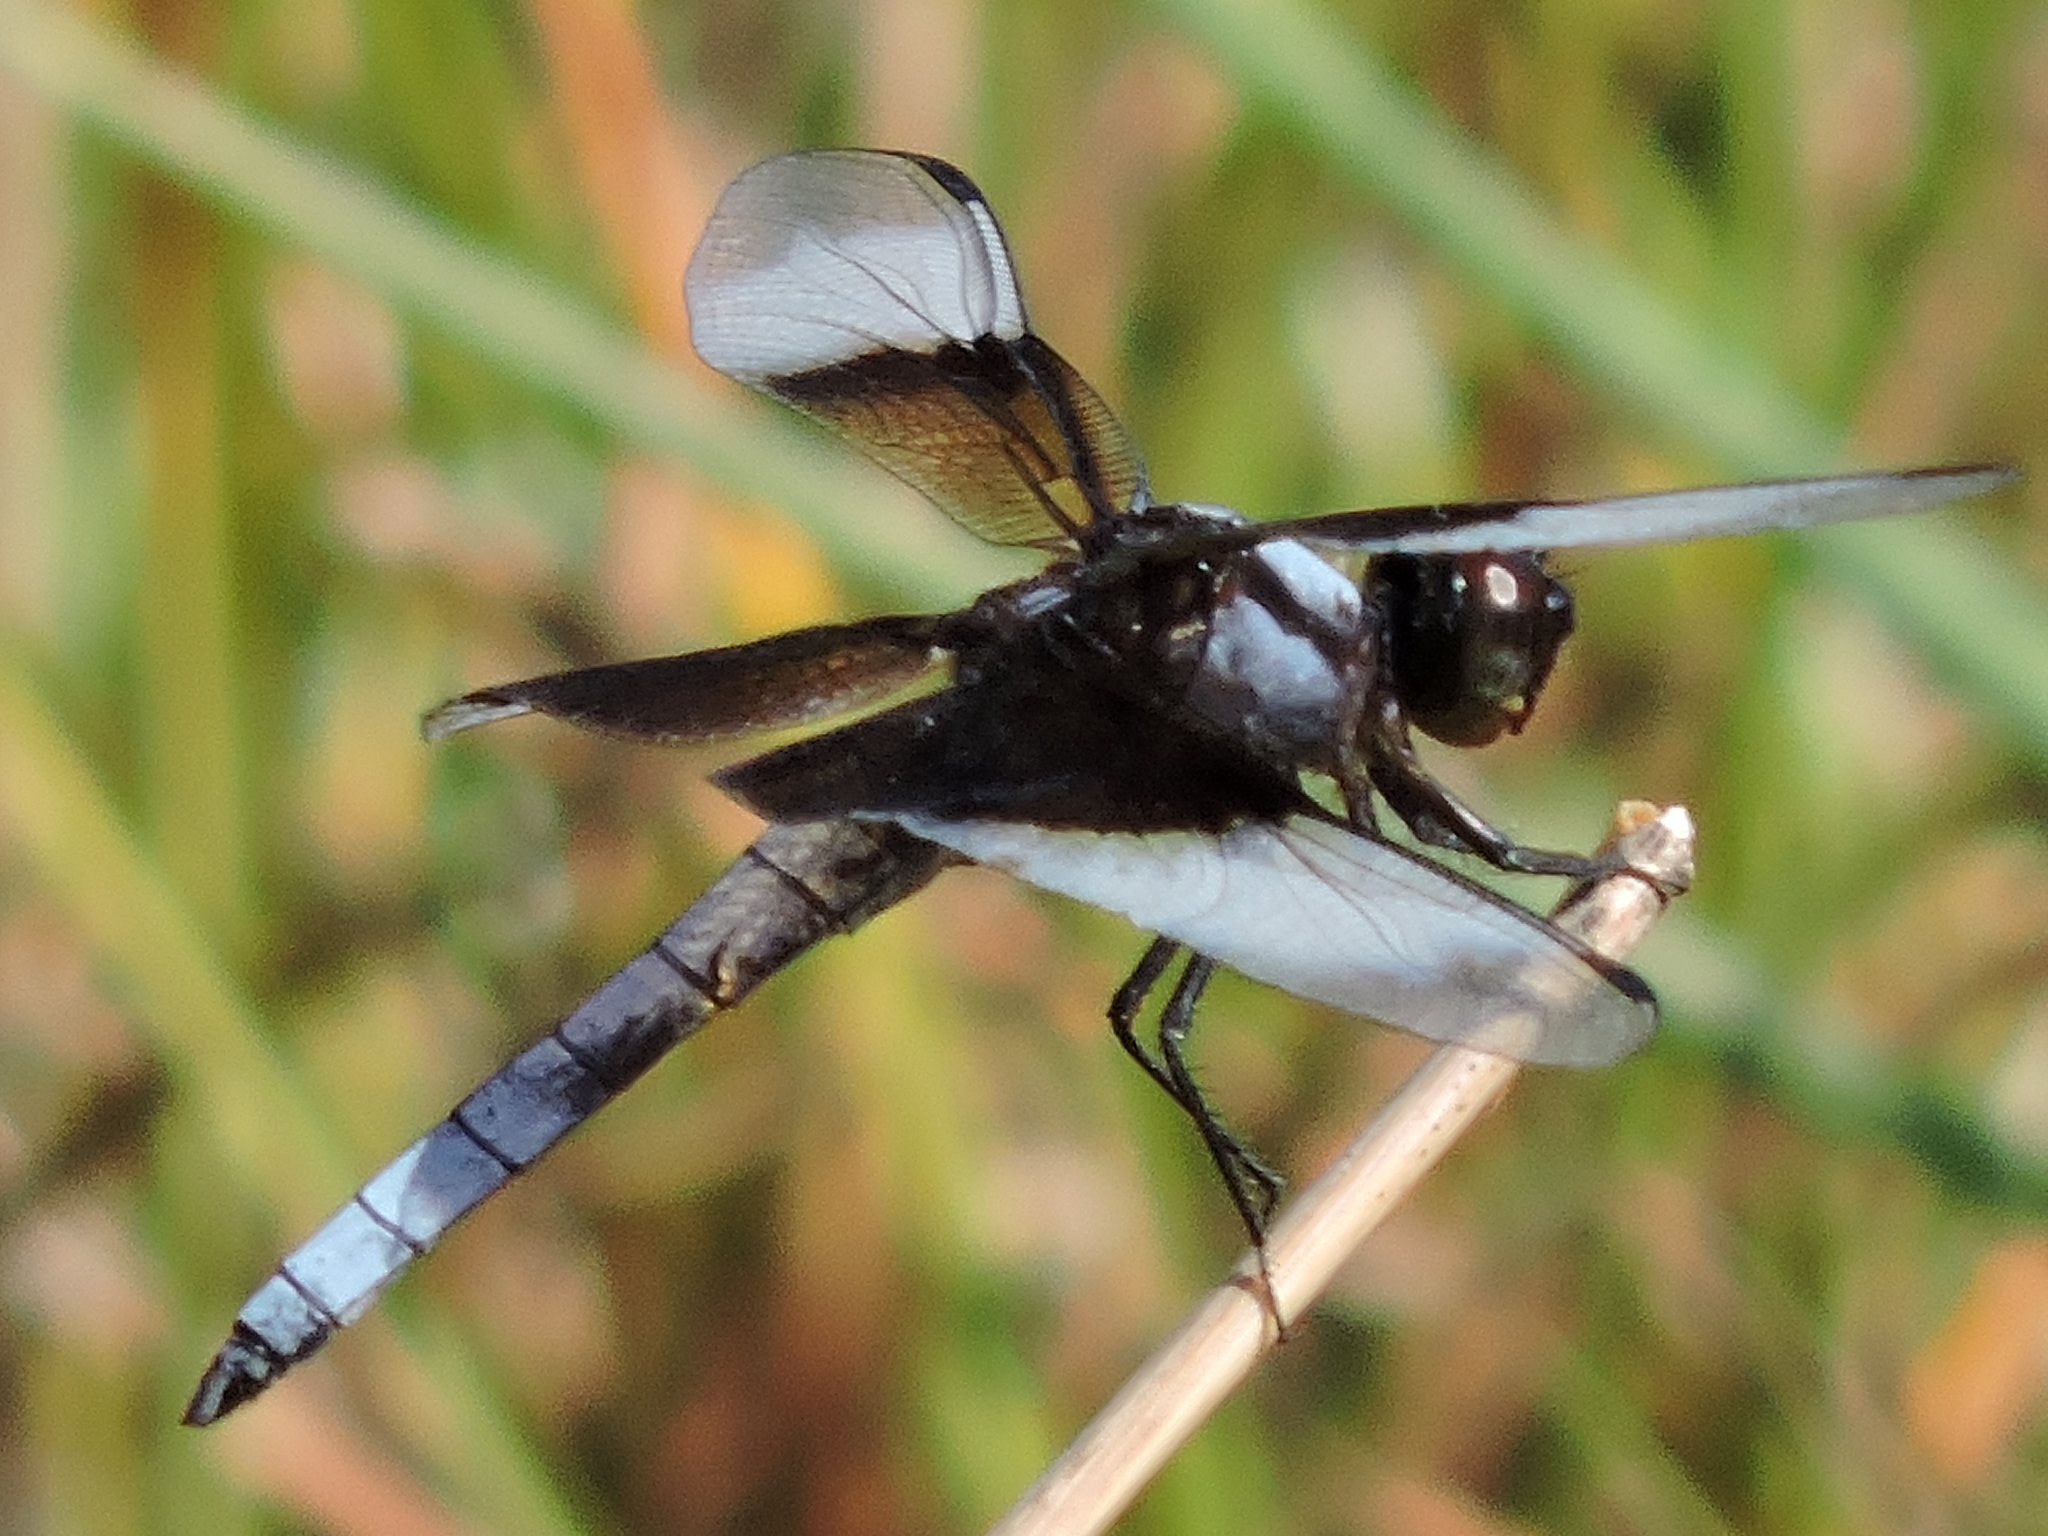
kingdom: Animalia
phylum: Arthropoda
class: Insecta
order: Odonata
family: Libellulidae
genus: Libellula
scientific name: Libellula luctuosa
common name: Widow skimmer
